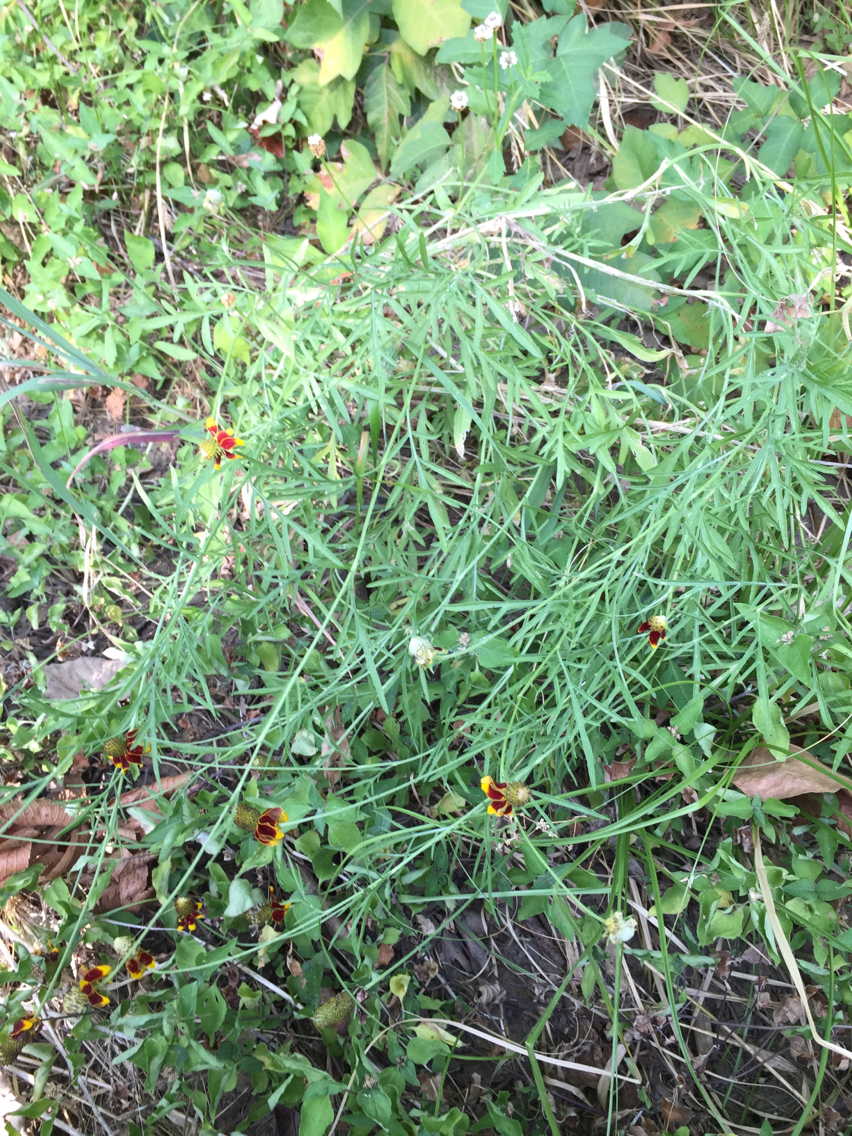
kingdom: Plantae
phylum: Tracheophyta
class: Magnoliopsida
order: Asterales
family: Asteraceae
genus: Ratibida
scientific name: Ratibida columnifera
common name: Prairie coneflower
